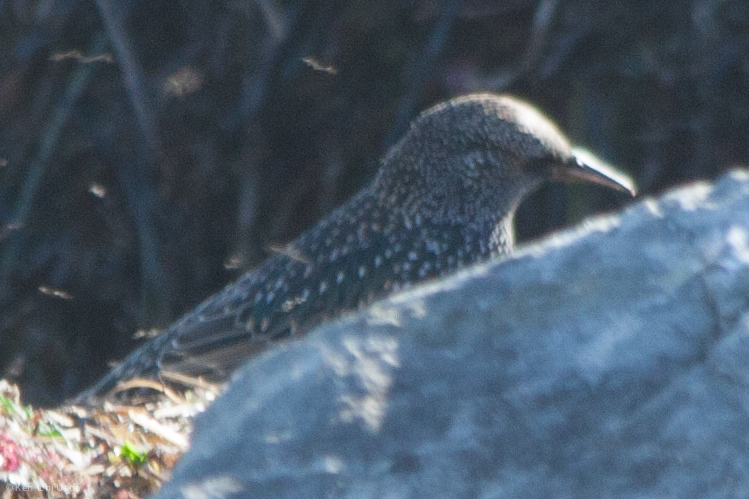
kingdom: Animalia
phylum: Chordata
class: Aves
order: Passeriformes
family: Sturnidae
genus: Sturnus
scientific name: Sturnus vulgaris
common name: Common starling
